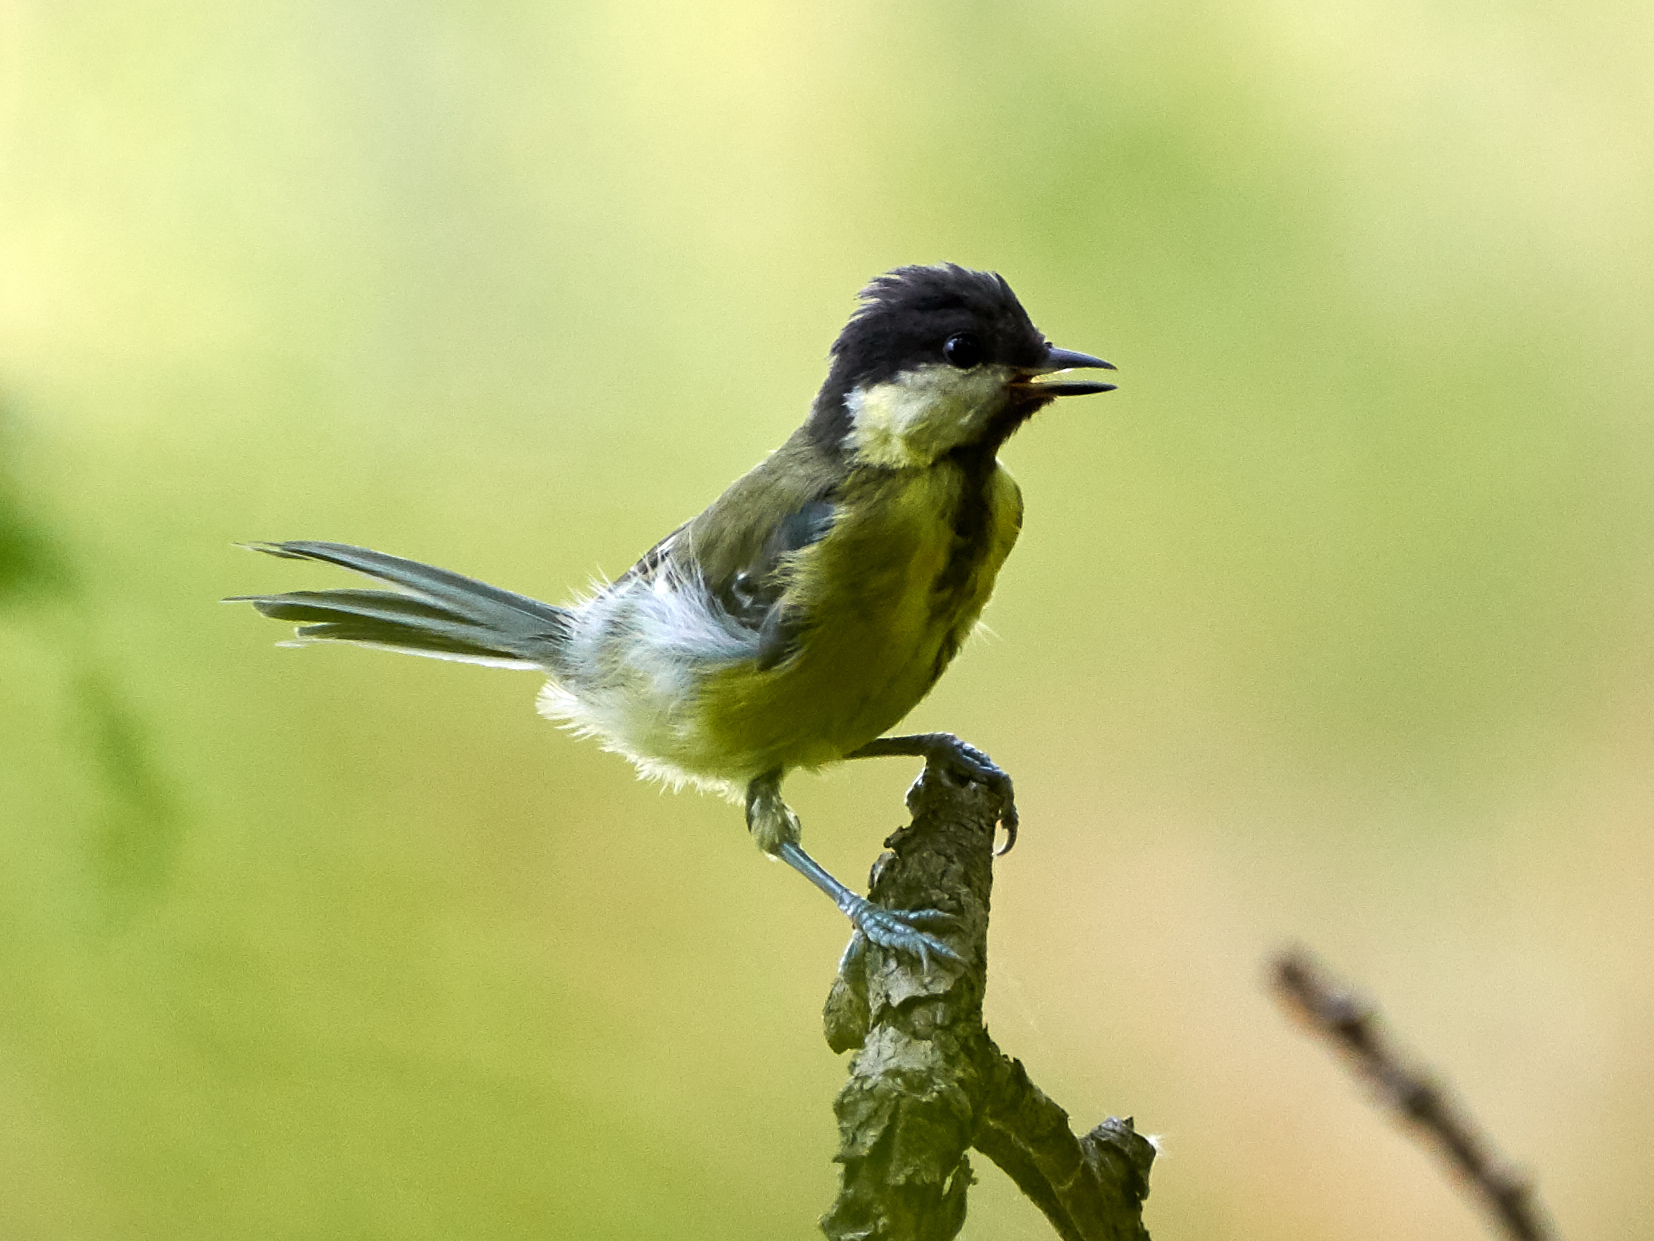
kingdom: Animalia
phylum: Chordata
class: Aves
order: Passeriformes
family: Paridae
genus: Parus
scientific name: Parus major
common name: Great tit
